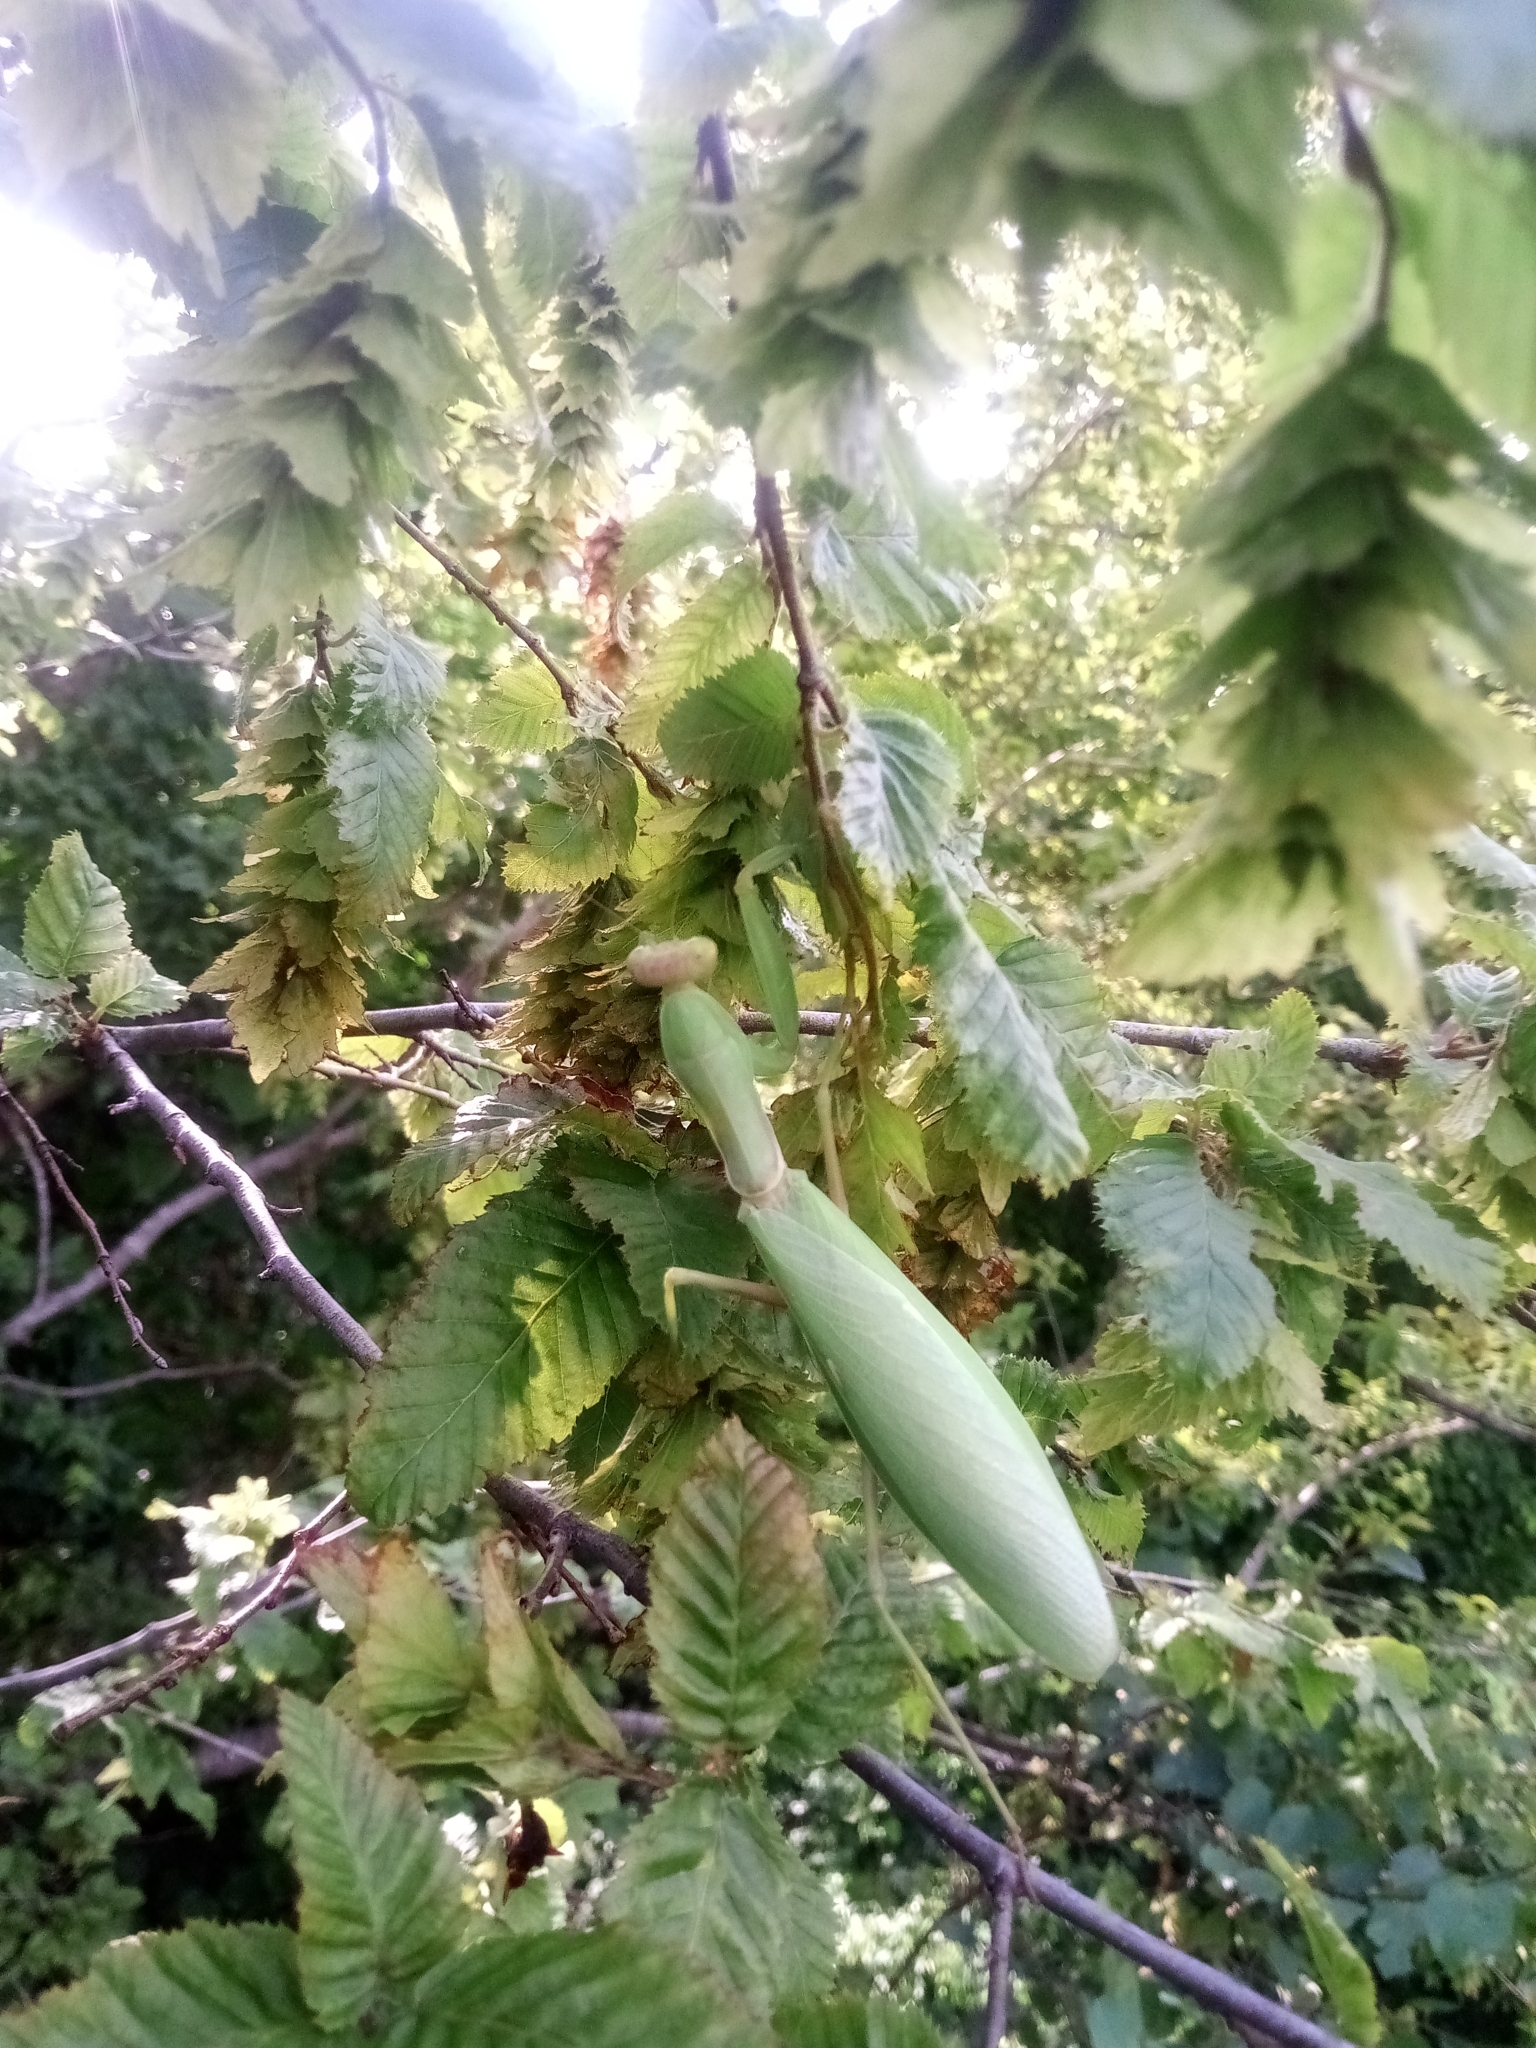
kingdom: Animalia
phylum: Arthropoda
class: Insecta
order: Mantodea
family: Mantidae
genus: Hierodula
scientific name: Hierodula transcaucasica
